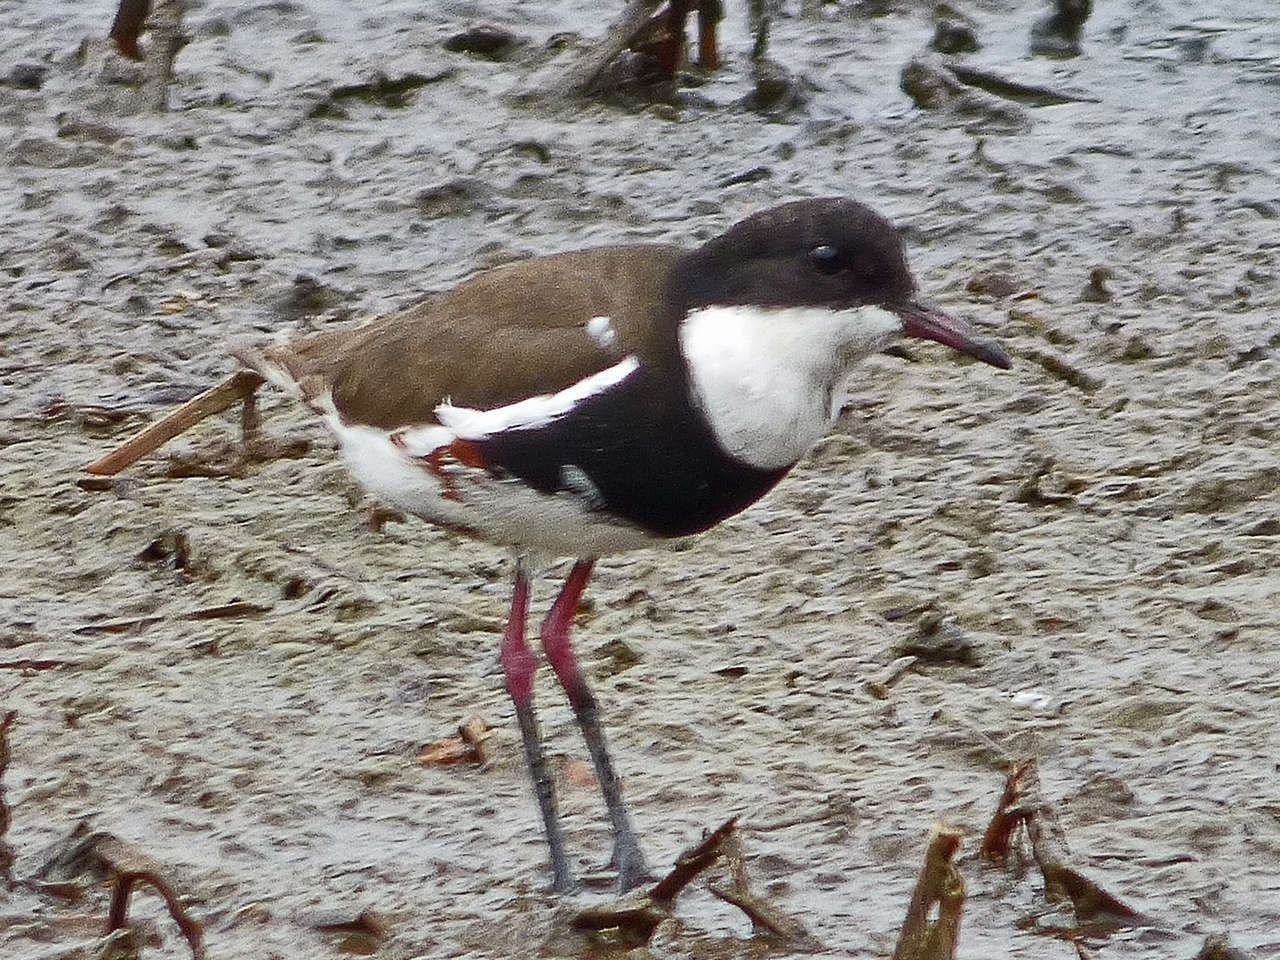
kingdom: Animalia
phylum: Chordata
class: Aves
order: Charadriiformes
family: Charadriidae
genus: Erythrogonys
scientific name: Erythrogonys cinctus
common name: Red-kneed dotterel
